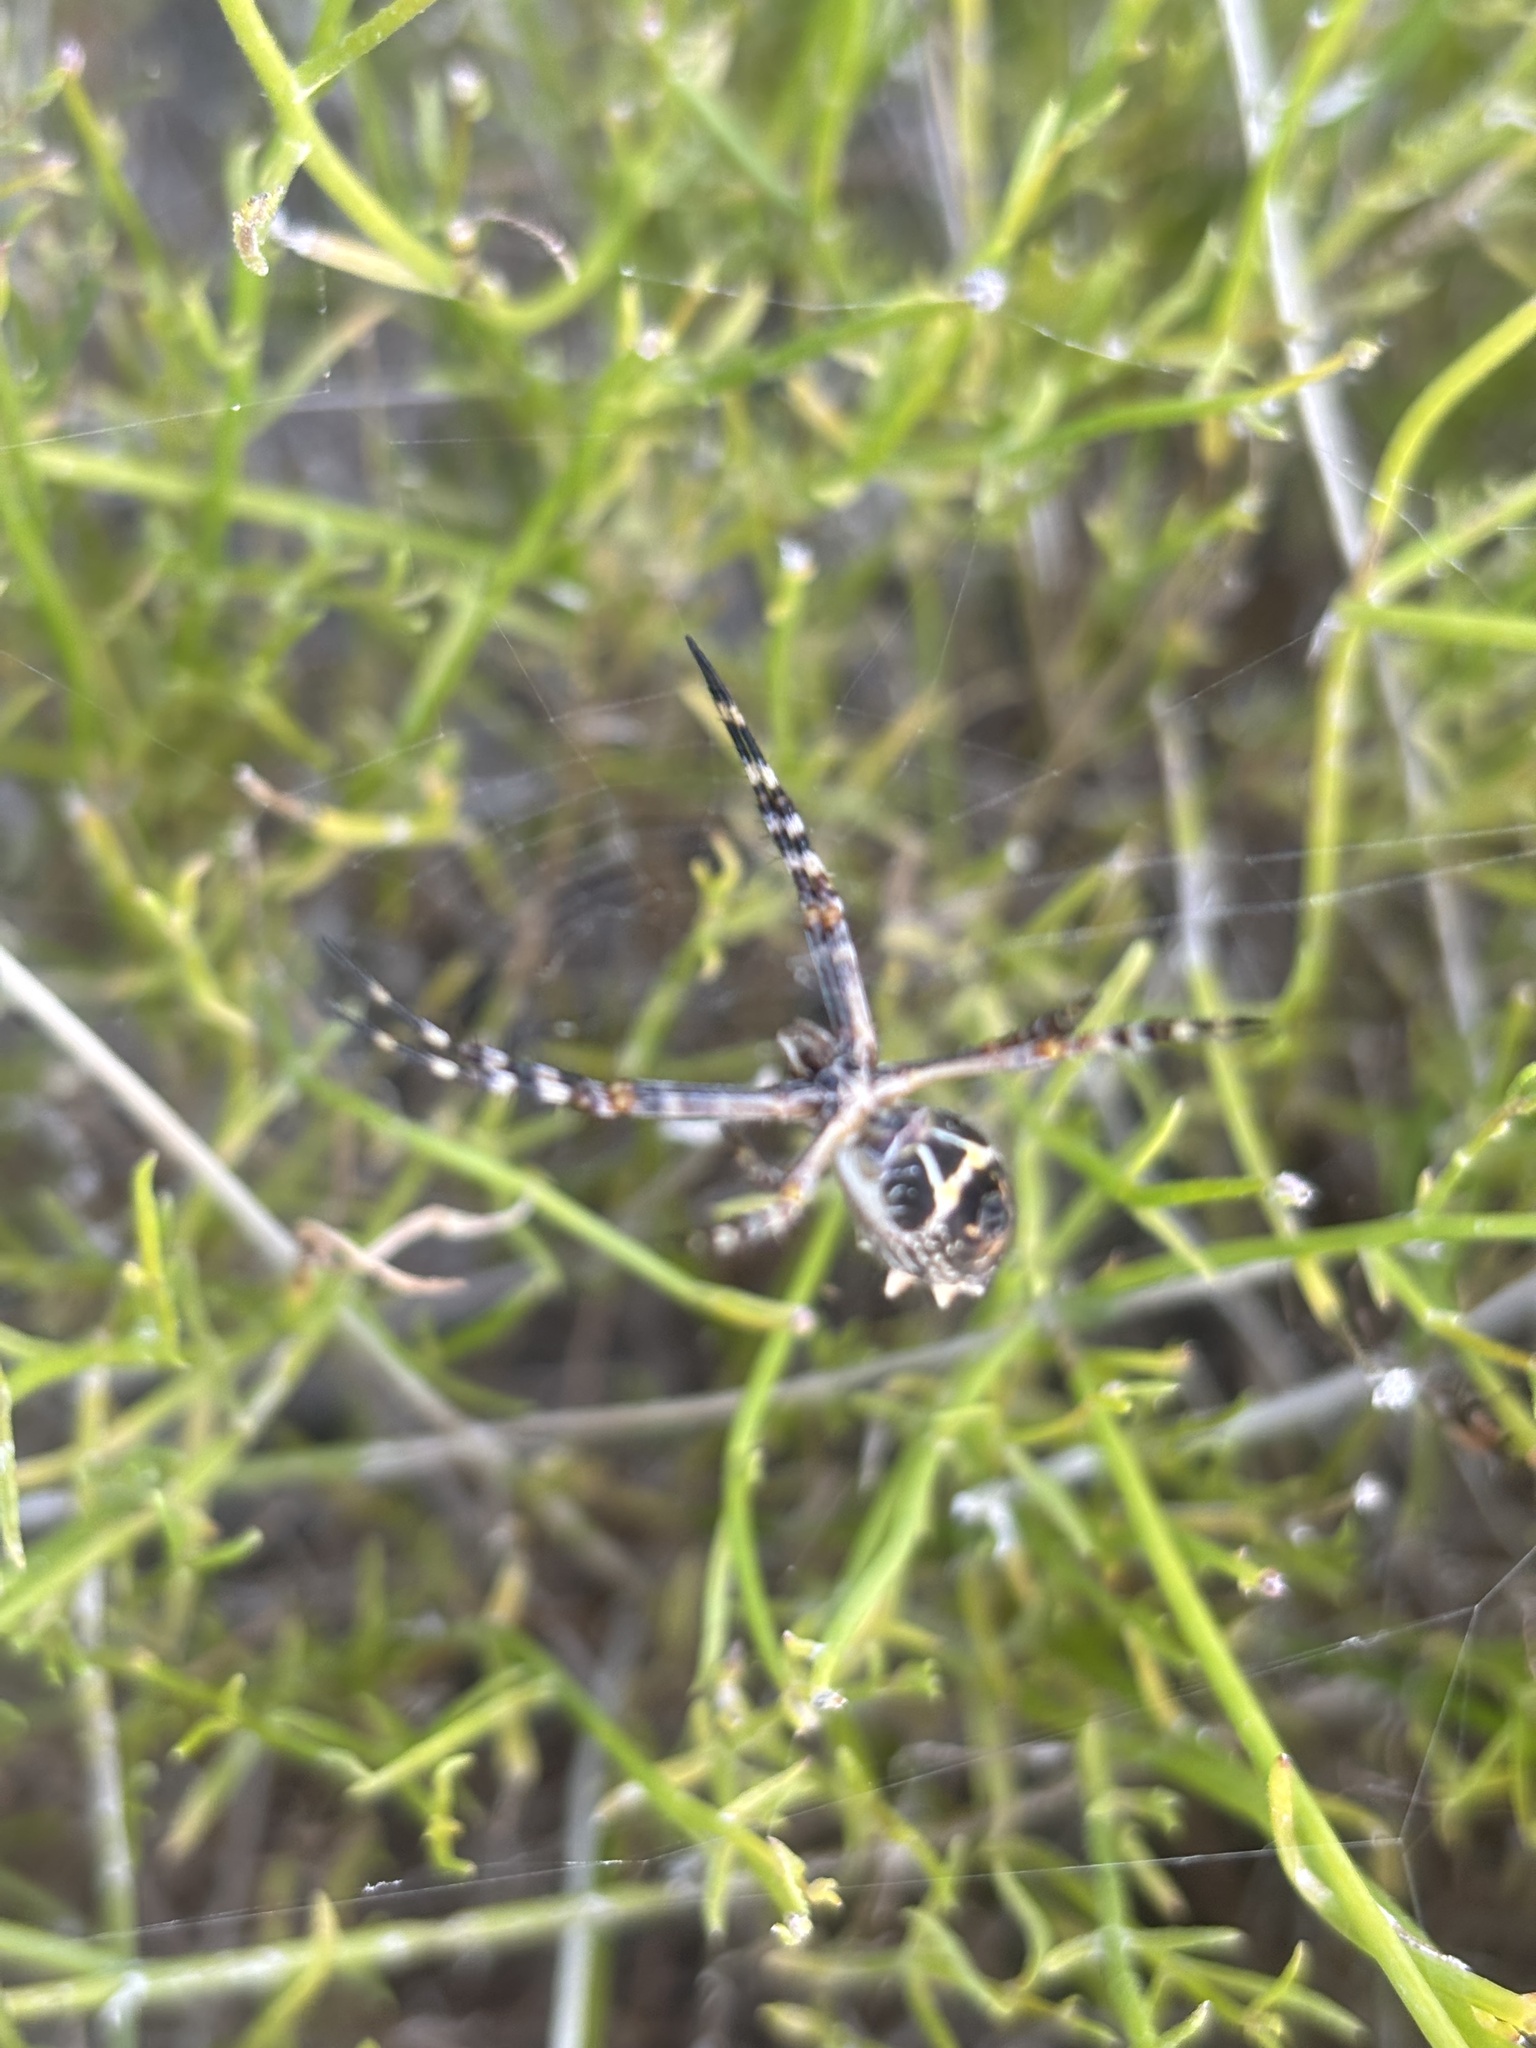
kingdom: Animalia
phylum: Arthropoda
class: Arachnida
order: Araneae
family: Araneidae
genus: Argiope
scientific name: Argiope argentata
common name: Orb weavers
